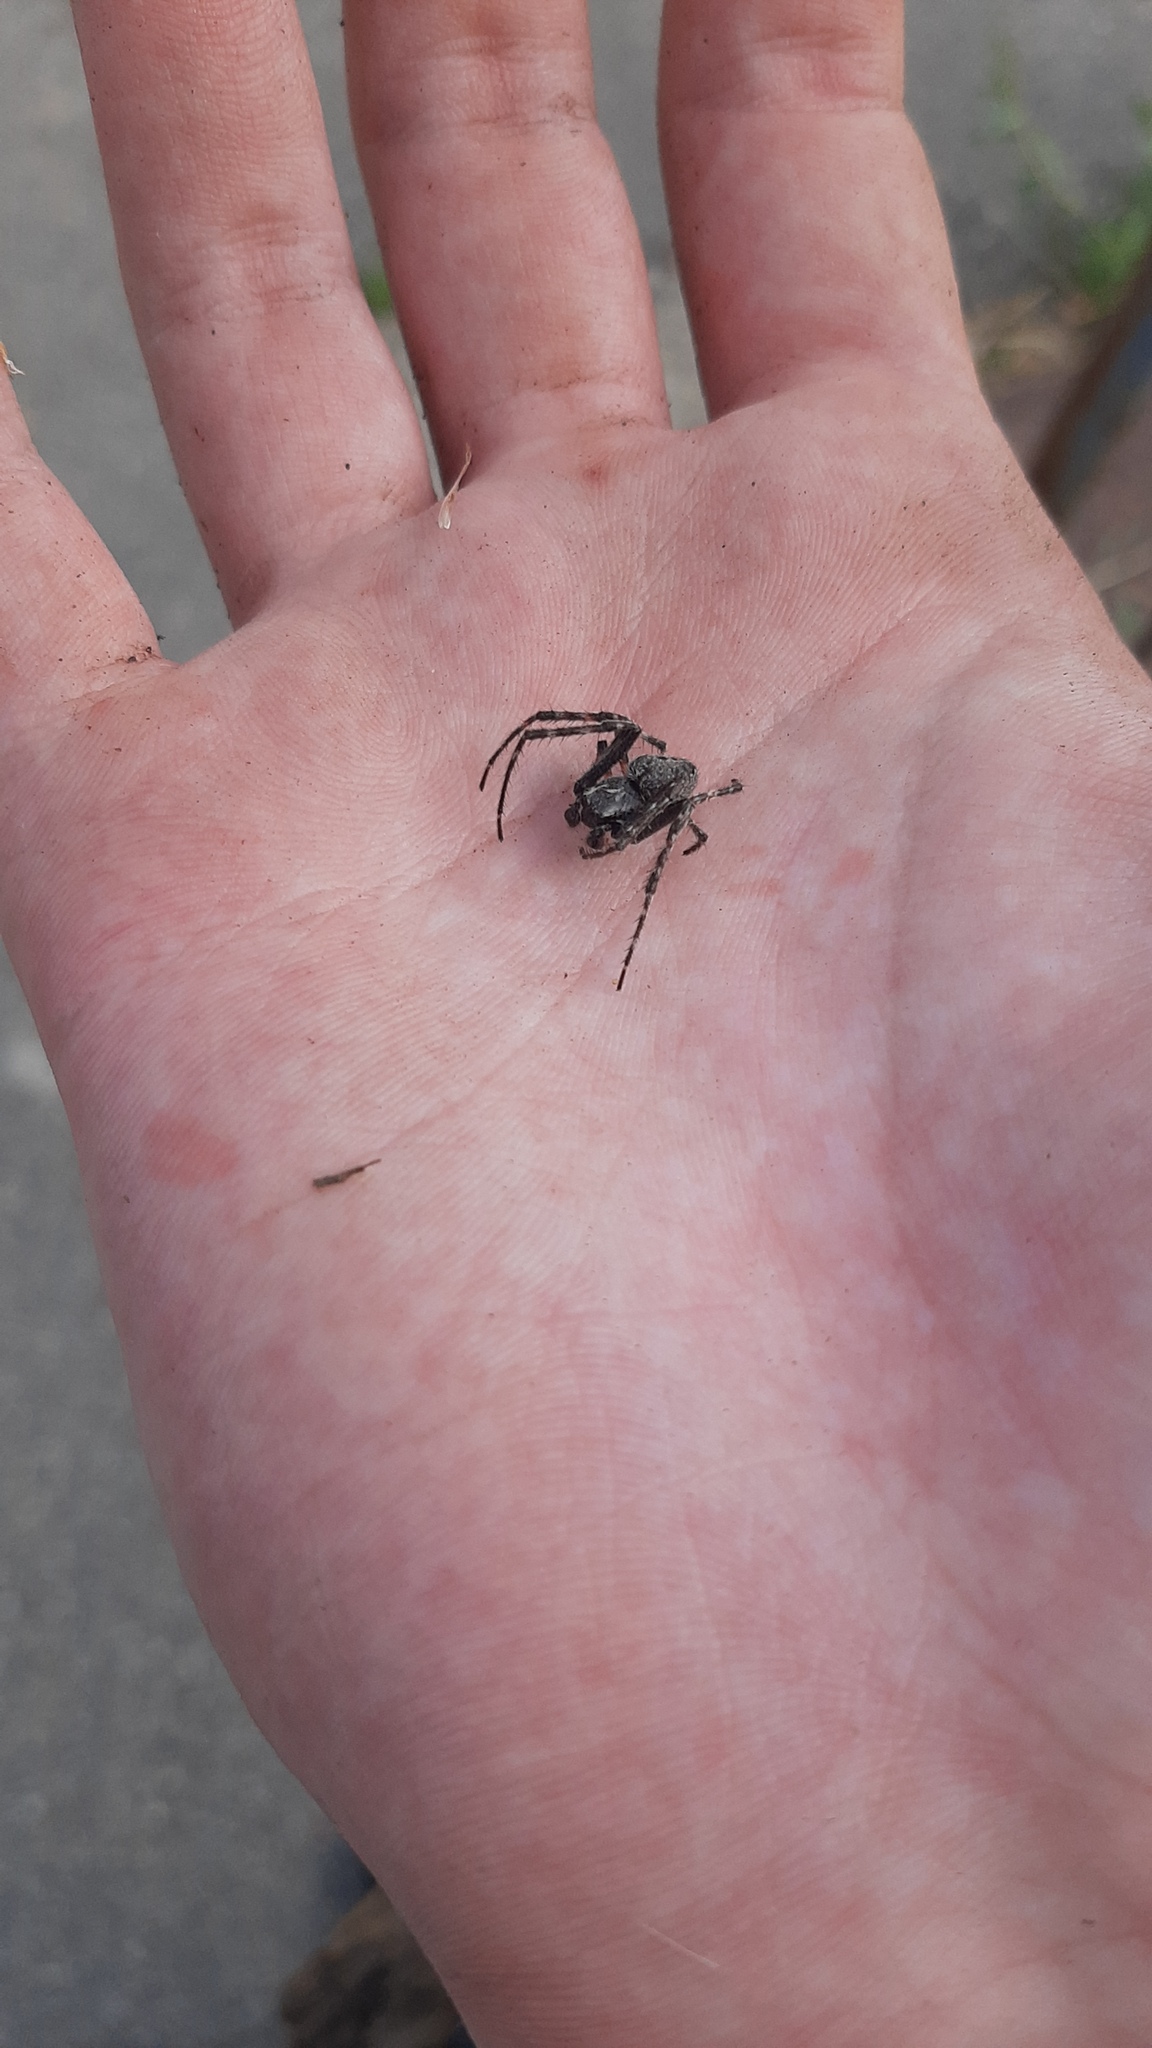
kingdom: Animalia
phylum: Arthropoda
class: Arachnida
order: Araneae
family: Araneidae
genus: Nuctenea
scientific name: Nuctenea umbratica
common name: Toad spider
